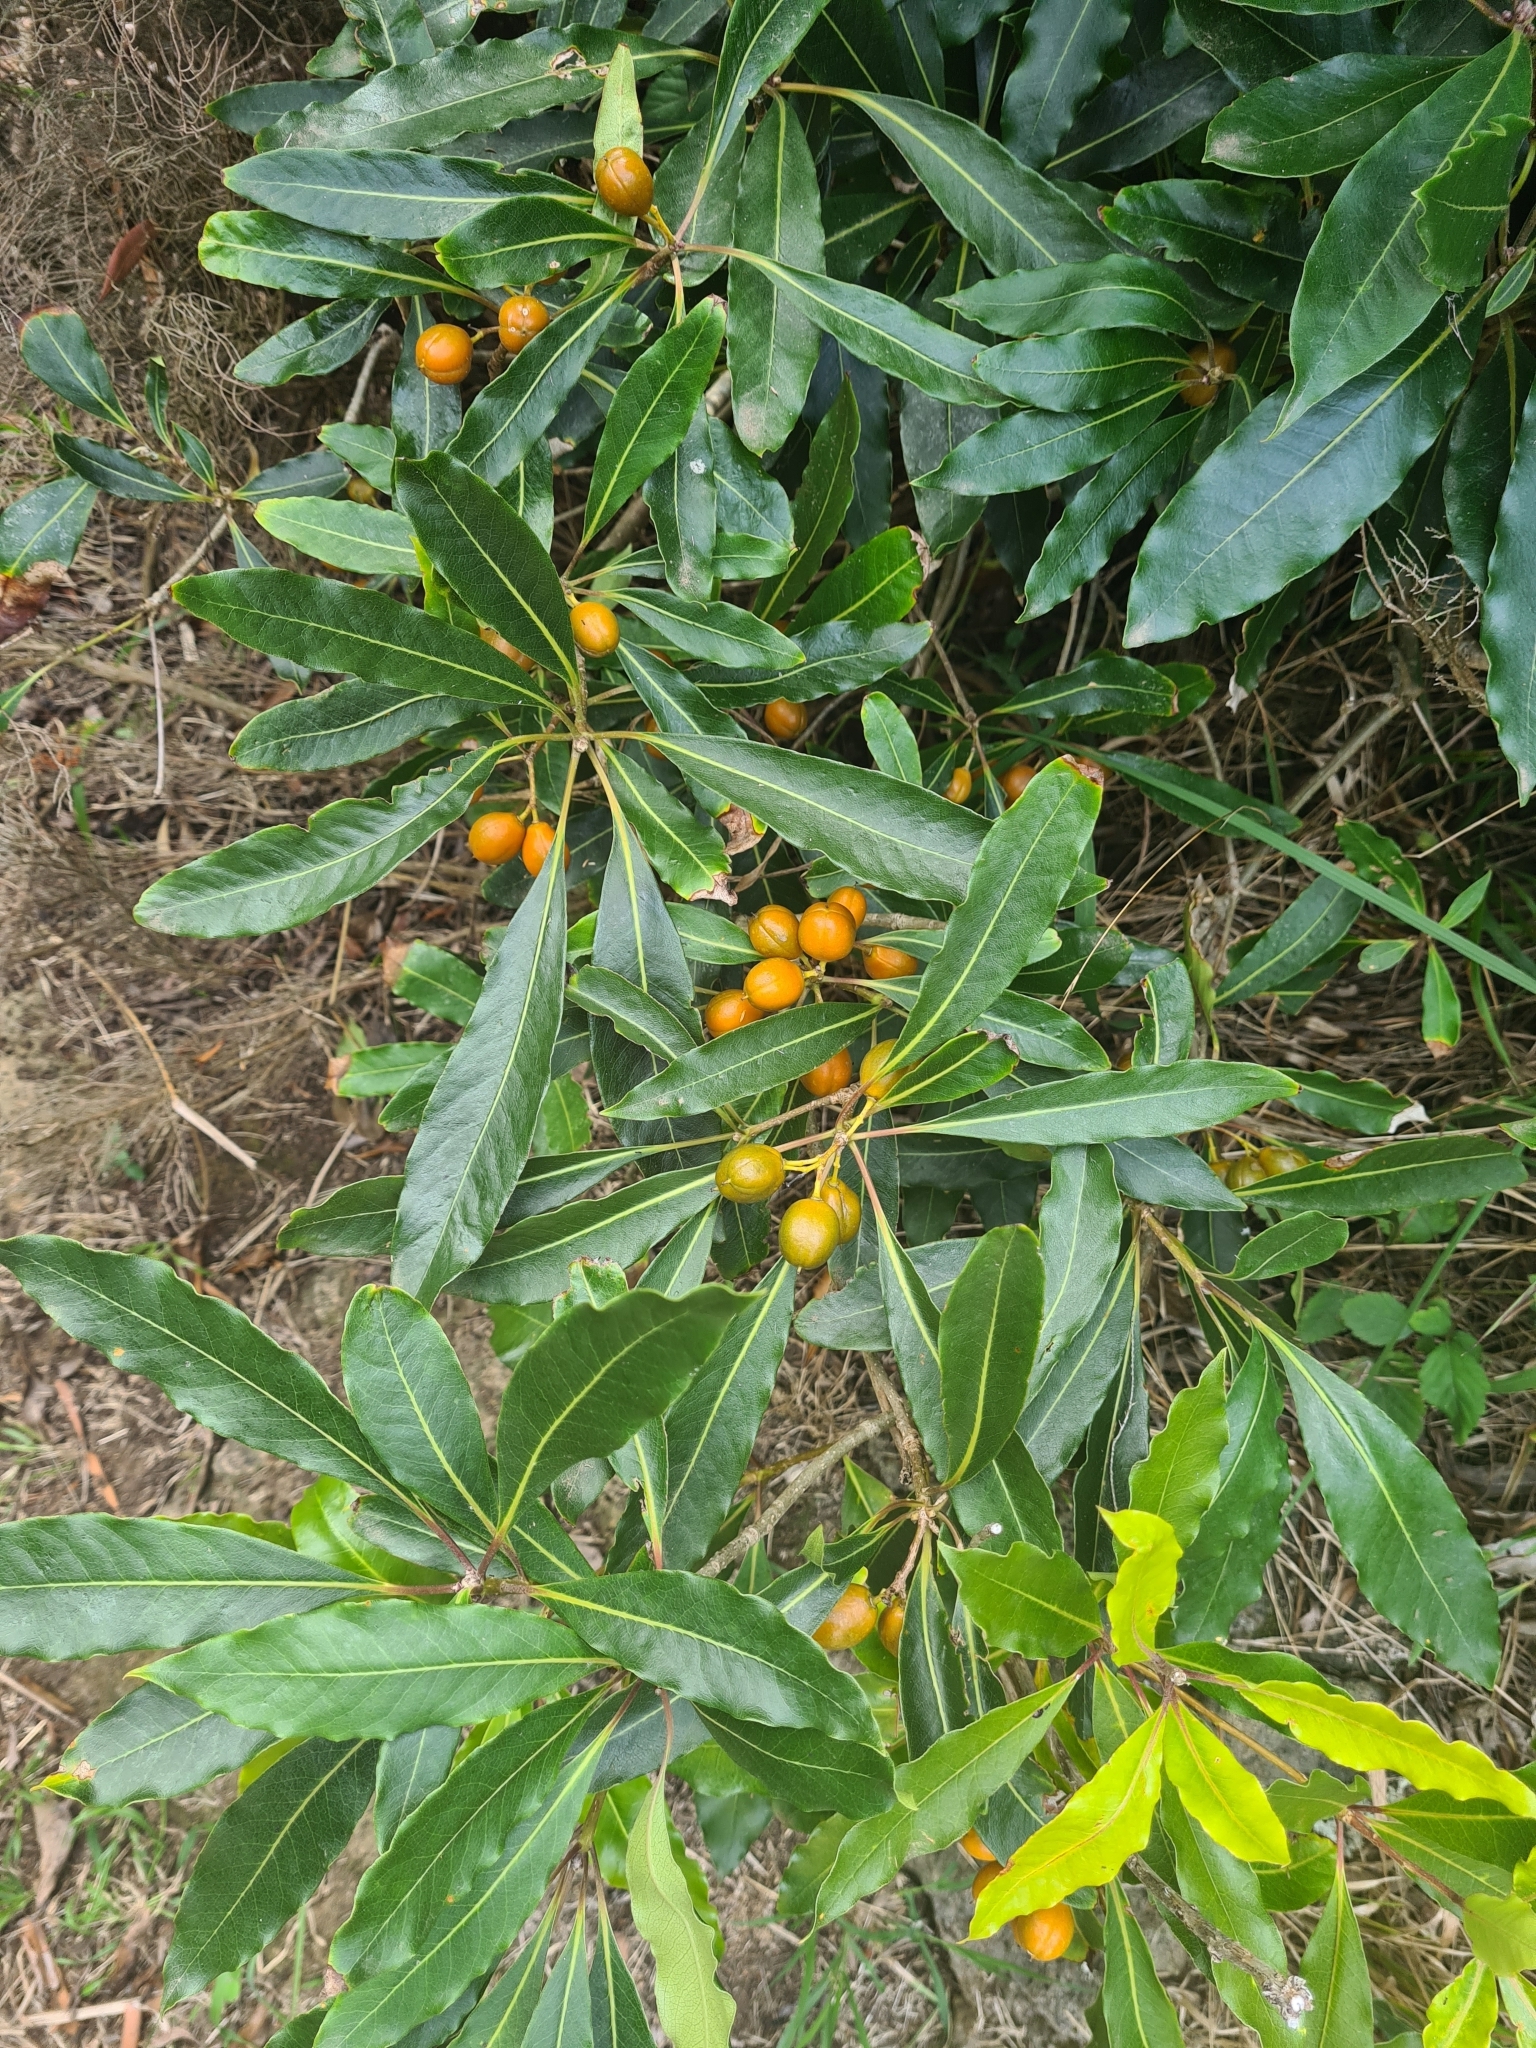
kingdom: Plantae
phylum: Tracheophyta
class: Magnoliopsida
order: Apiales
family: Pittosporaceae
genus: Pittosporum
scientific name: Pittosporum undulatum
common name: Australian cheesewood
